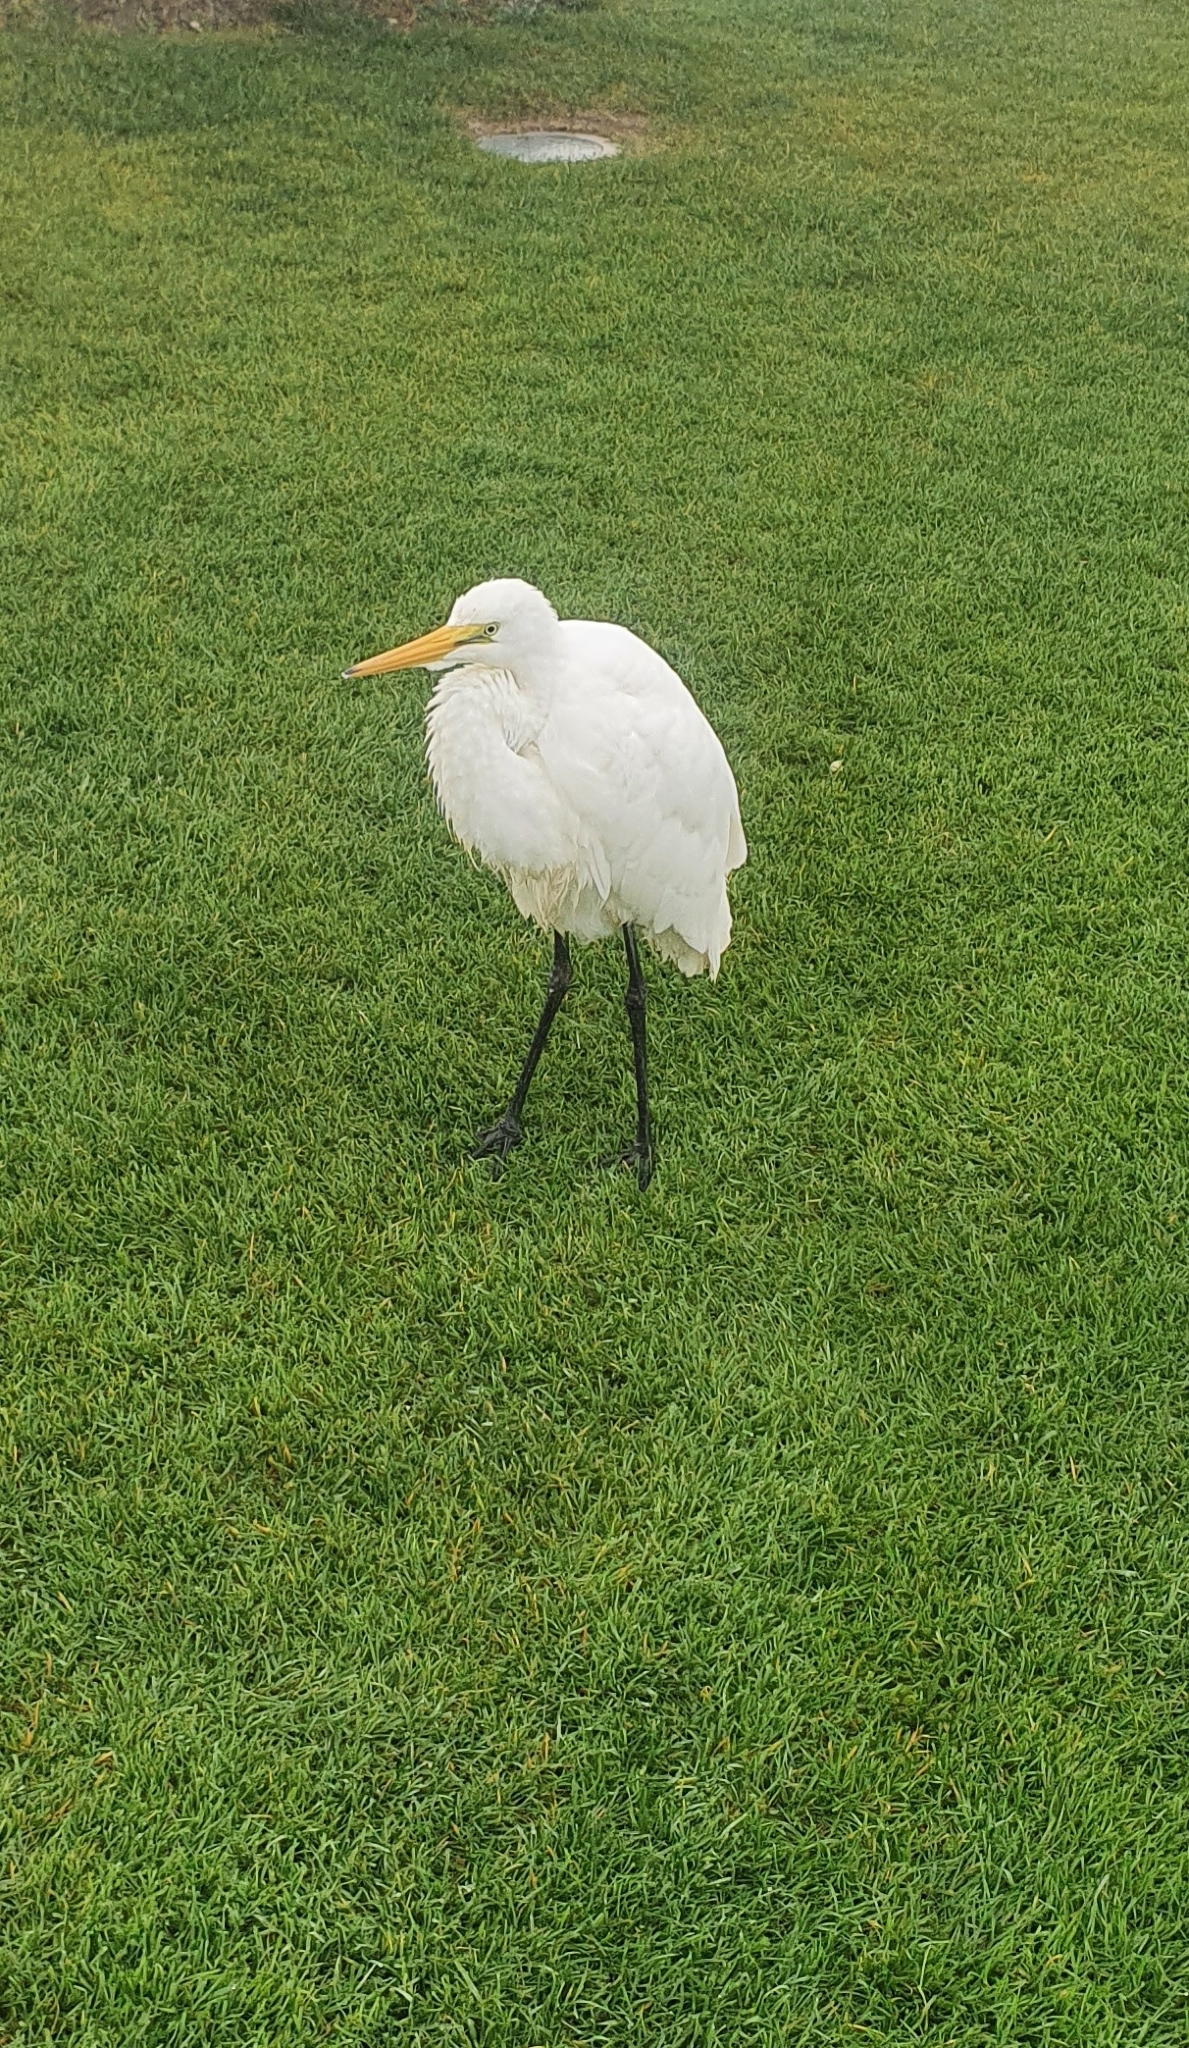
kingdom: Animalia
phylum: Chordata
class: Aves
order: Pelecaniformes
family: Ardeidae
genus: Ardea
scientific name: Ardea modesta
